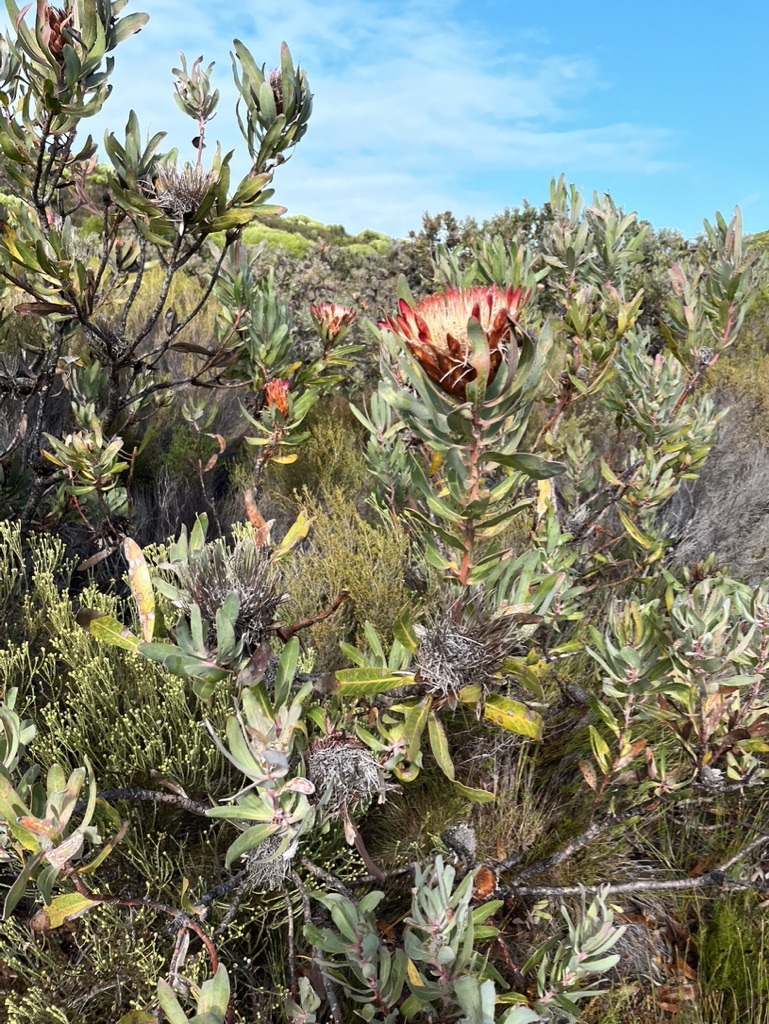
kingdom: Plantae
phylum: Tracheophyta
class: Magnoliopsida
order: Proteales
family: Proteaceae
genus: Protea
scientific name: Protea susannae
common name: Foetid-leaf sugarbush
